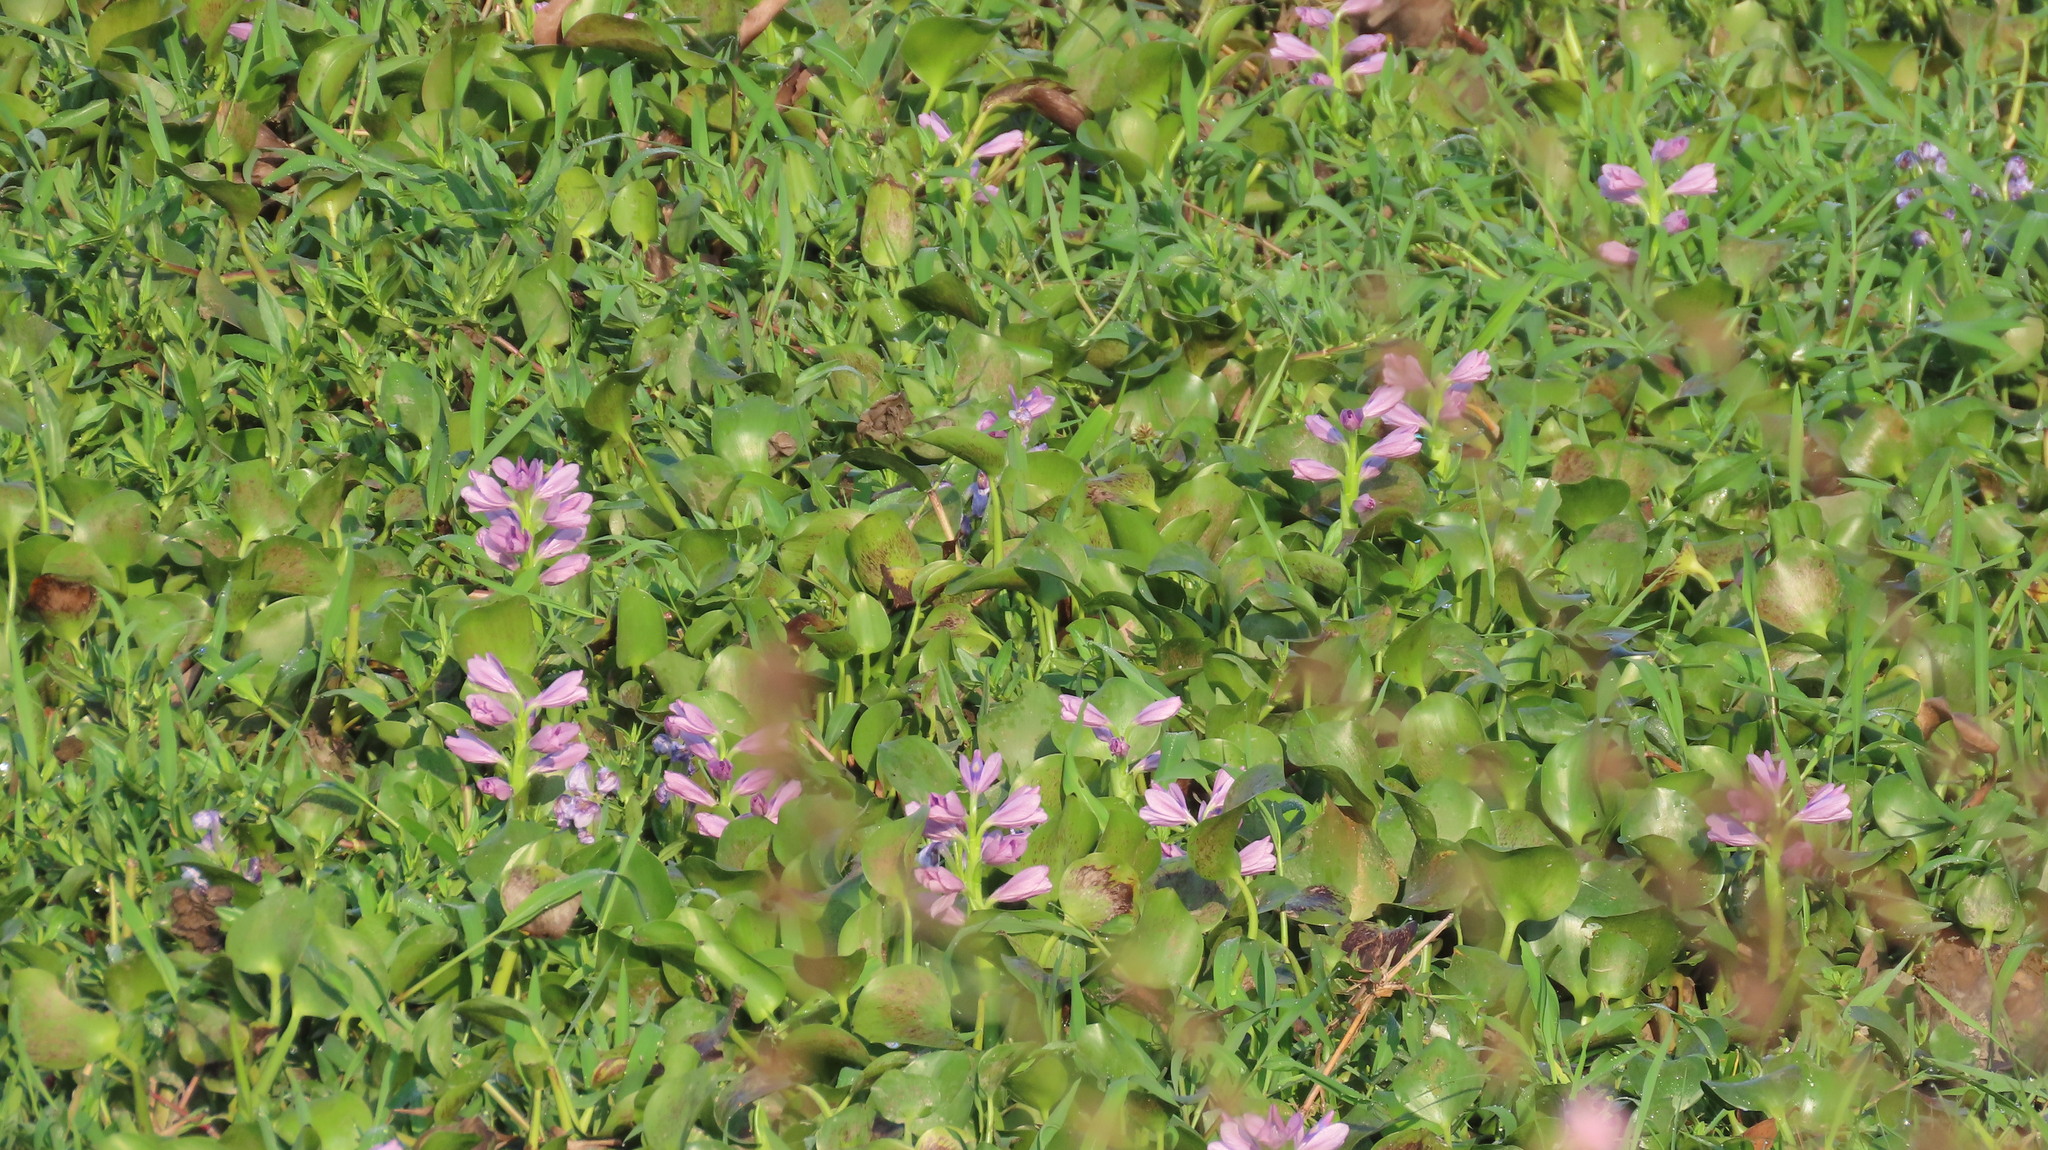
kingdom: Plantae
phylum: Tracheophyta
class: Liliopsida
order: Commelinales
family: Pontederiaceae
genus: Pontederia
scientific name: Pontederia crassipes
